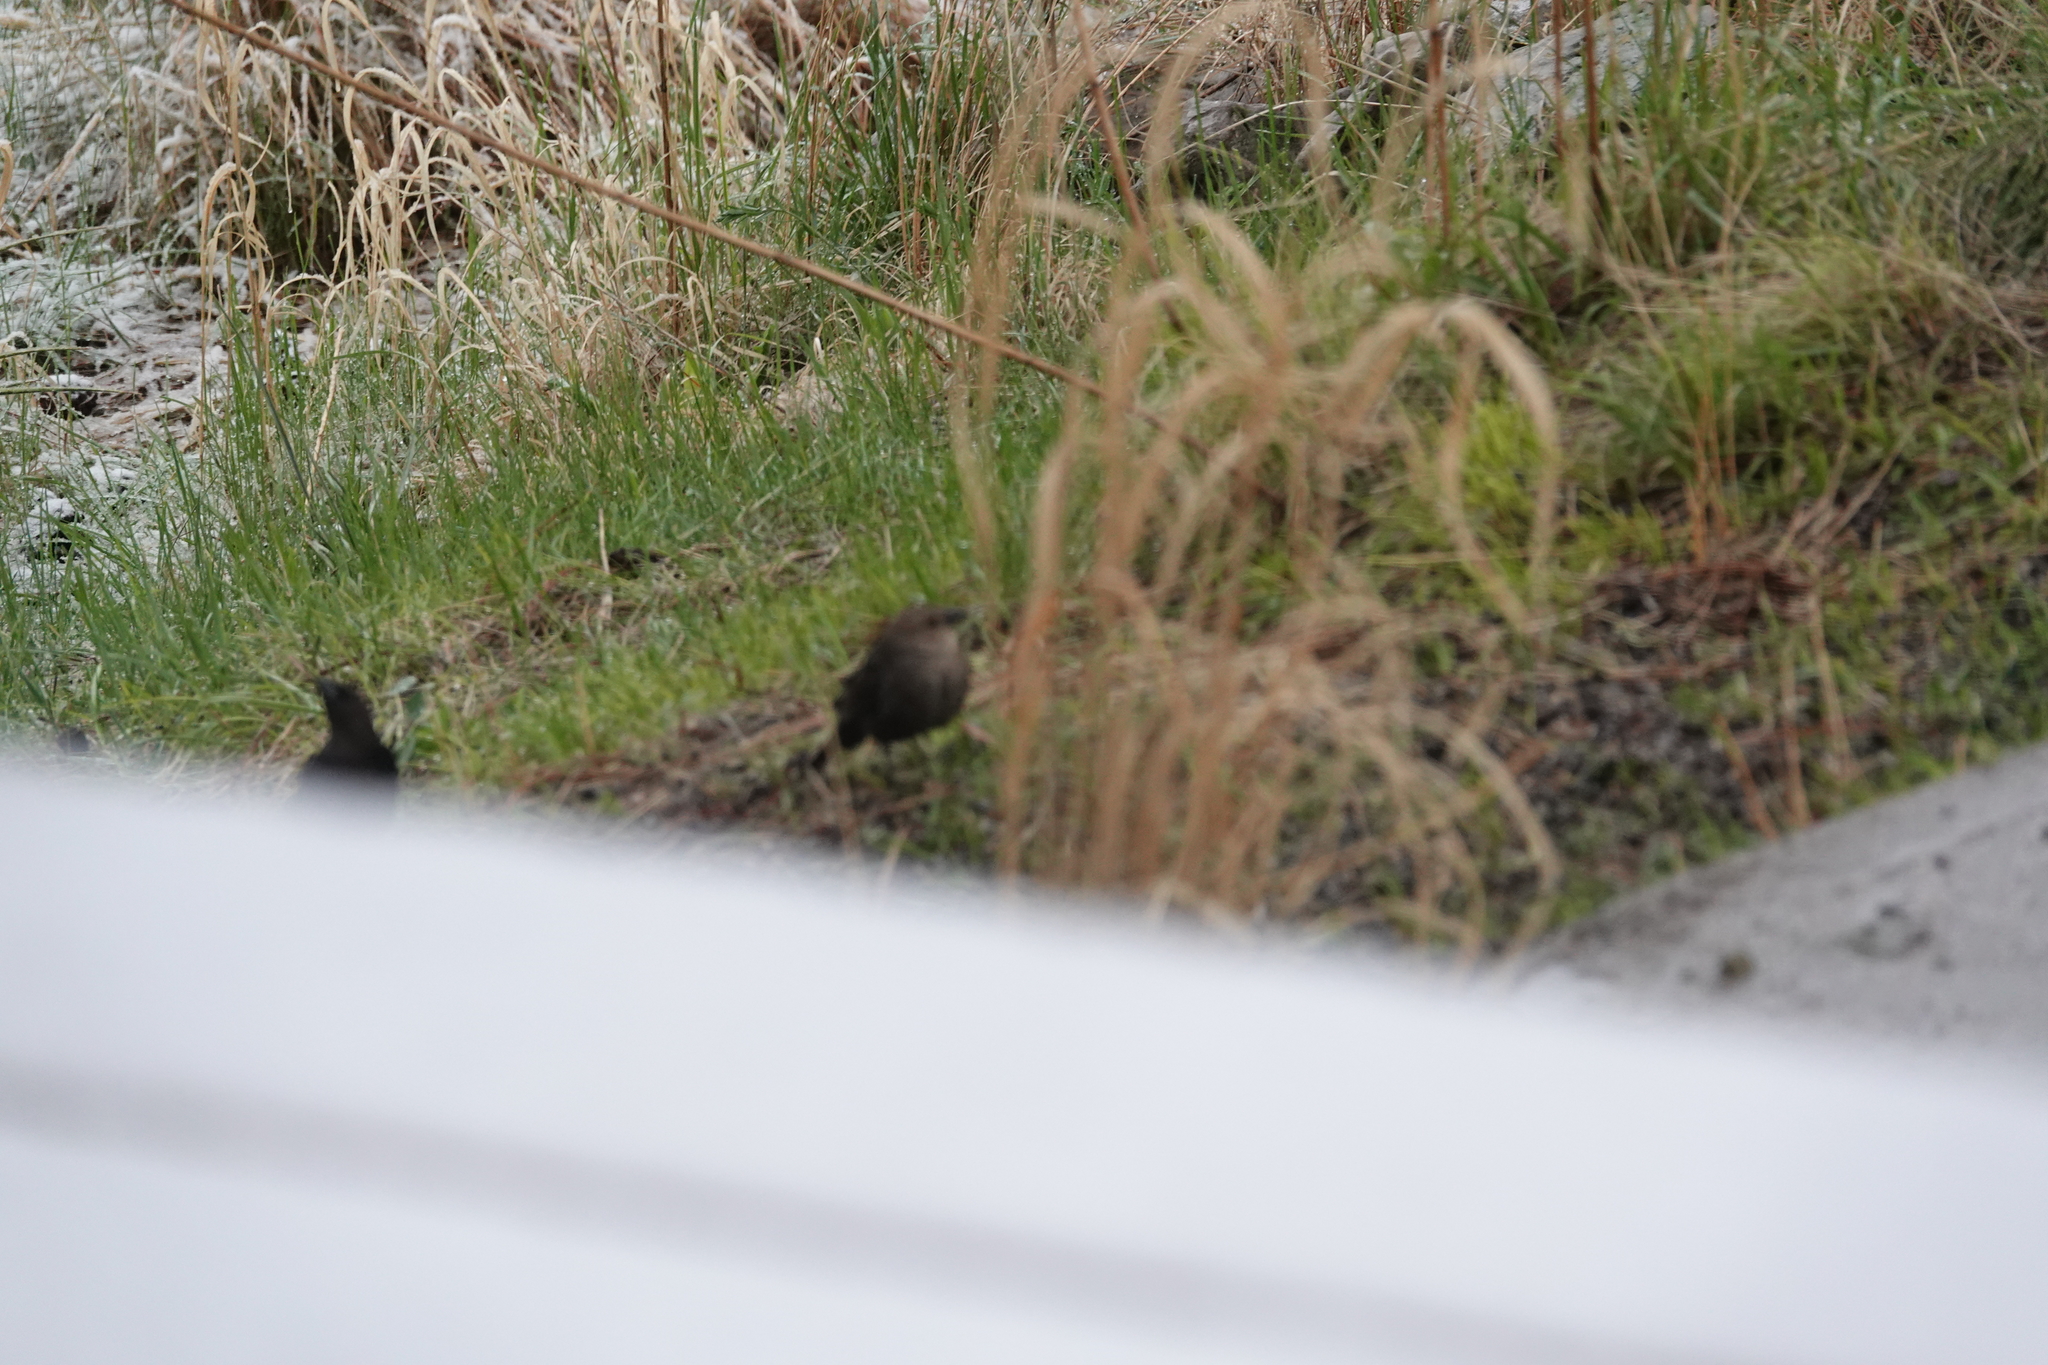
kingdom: Animalia
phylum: Chordata
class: Aves
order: Passeriformes
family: Icteridae
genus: Molothrus
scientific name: Molothrus ater
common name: Brown-headed cowbird
